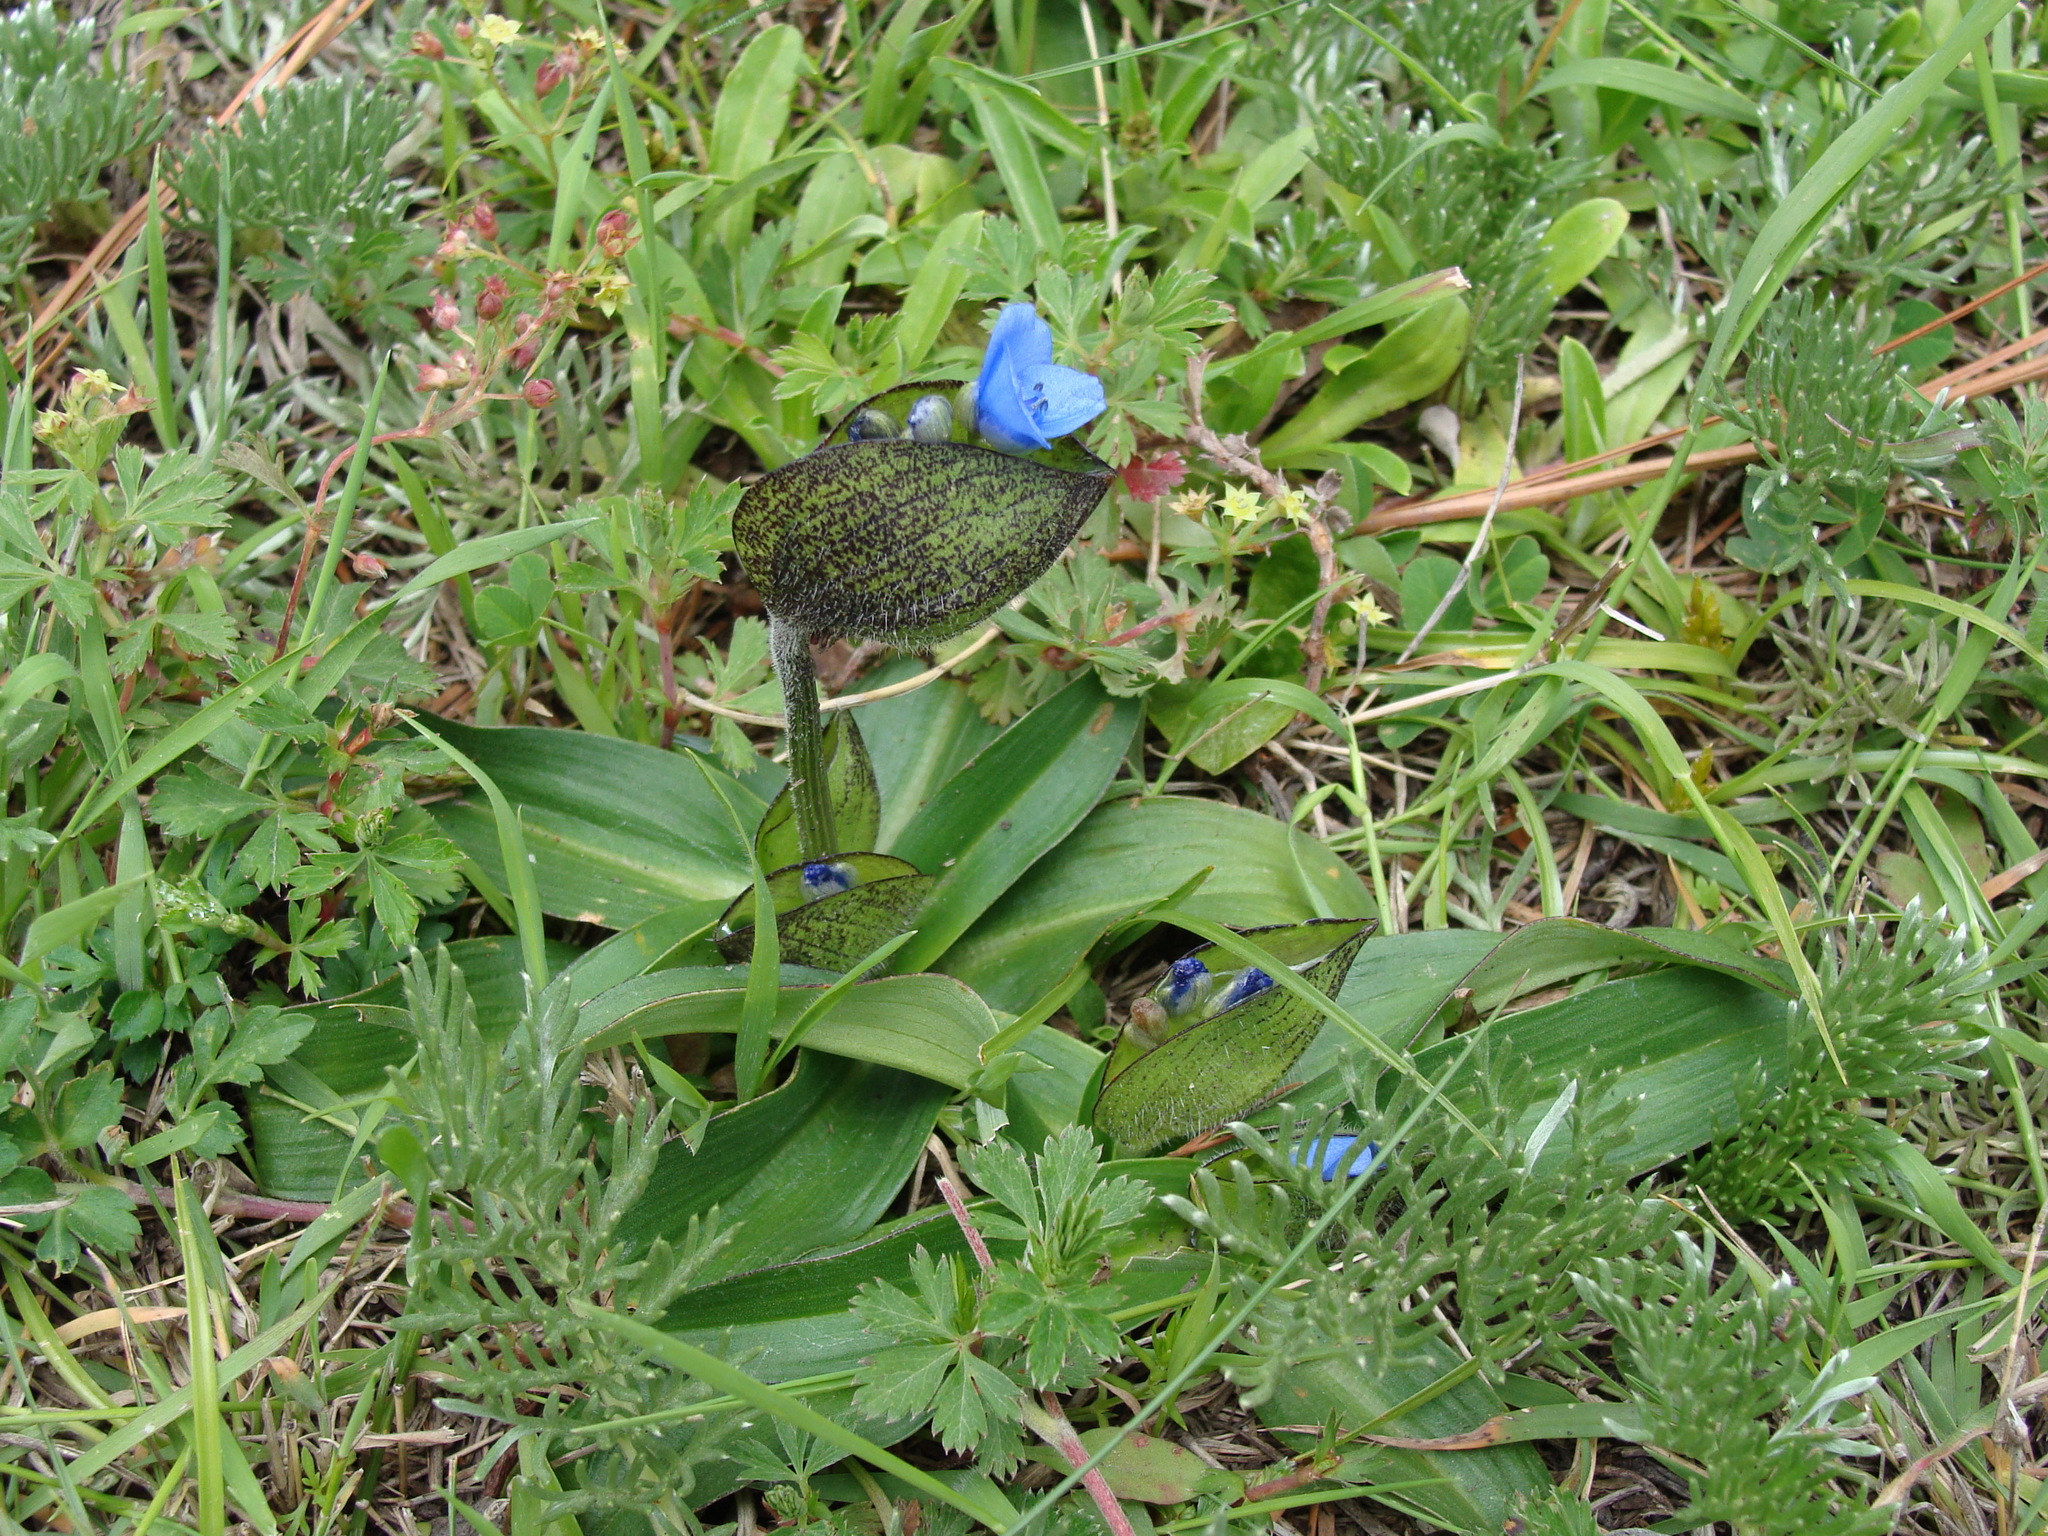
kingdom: Plantae
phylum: Tracheophyta
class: Liliopsida
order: Commelinales
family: Commelinaceae
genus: Commelina
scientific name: Commelina orchioides
